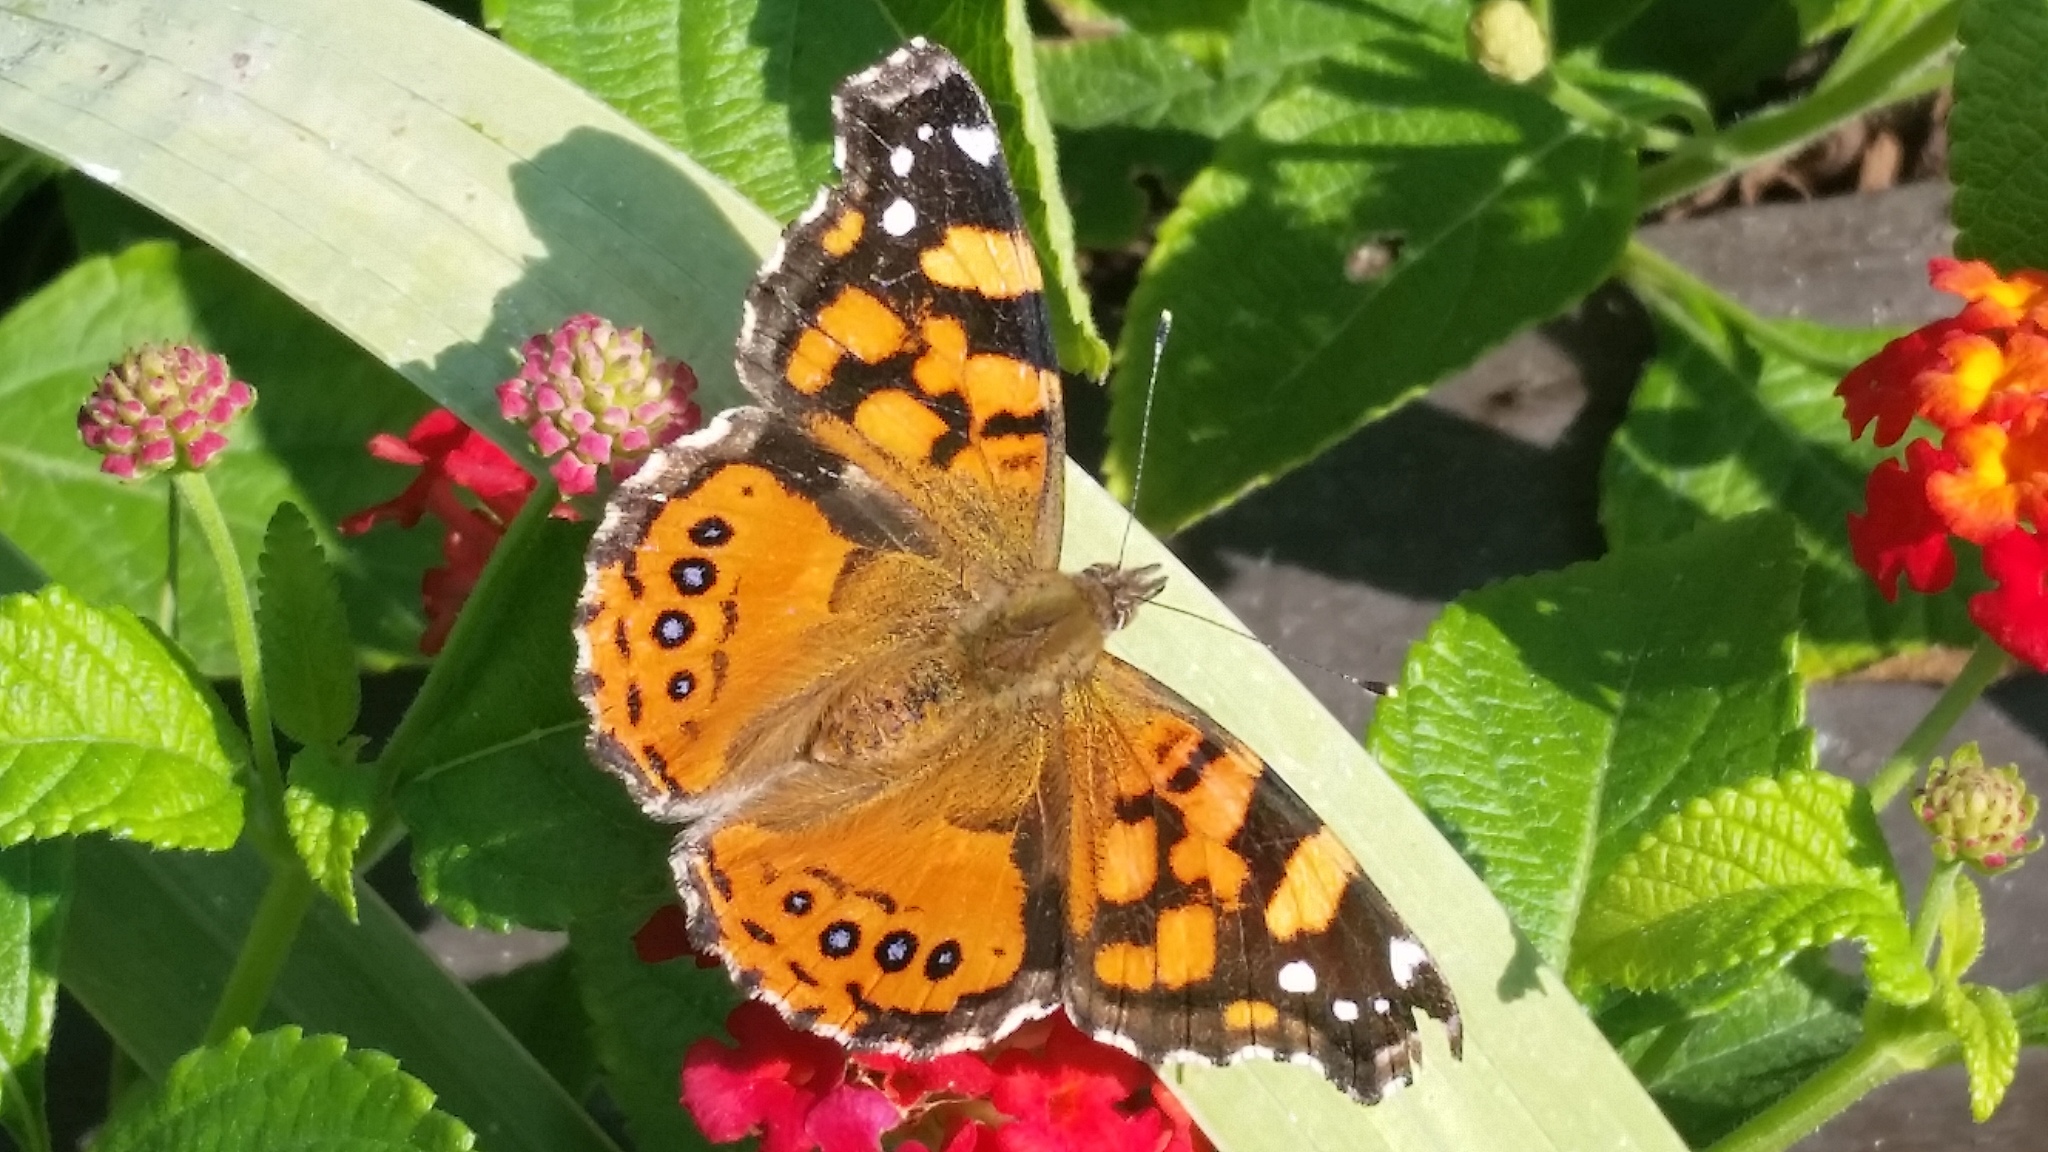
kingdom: Animalia
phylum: Arthropoda
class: Insecta
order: Lepidoptera
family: Nymphalidae
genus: Vanessa
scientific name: Vanessa annabella
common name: West coast lady
